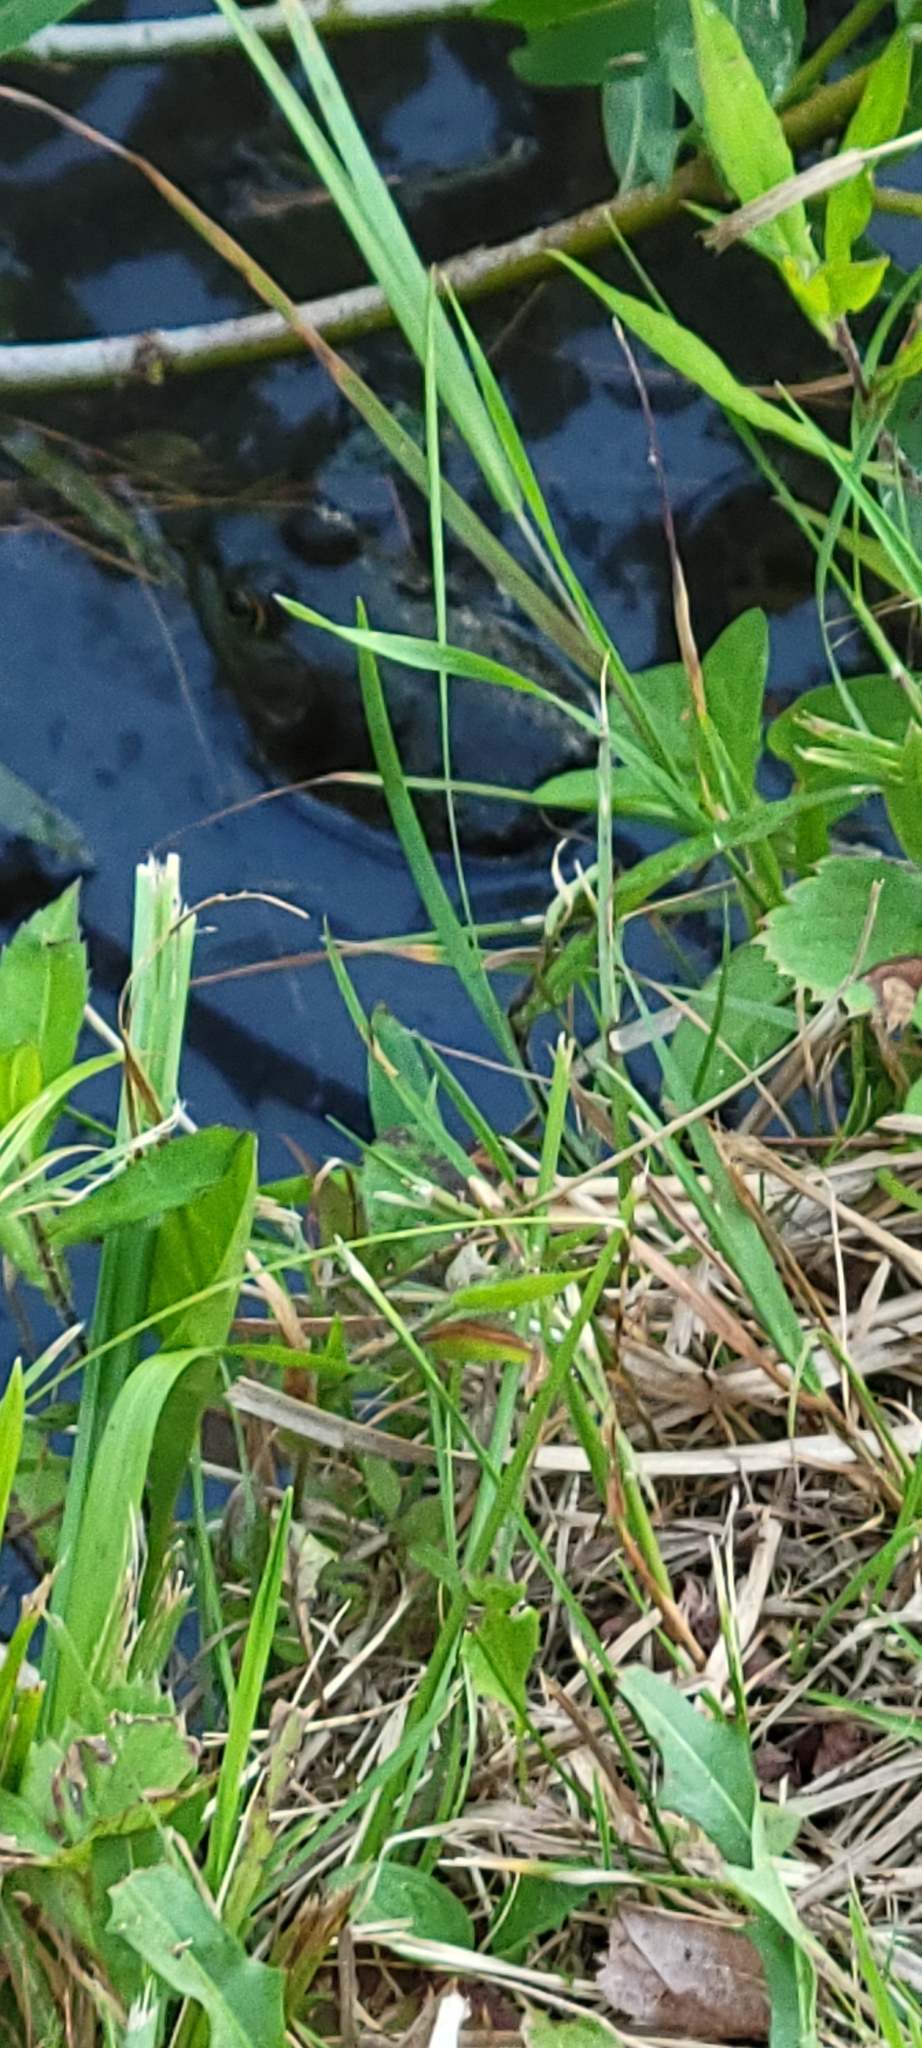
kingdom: Animalia
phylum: Chordata
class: Amphibia
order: Anura
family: Ranidae
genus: Lithobates
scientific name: Lithobates catesbeianus
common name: American bullfrog
